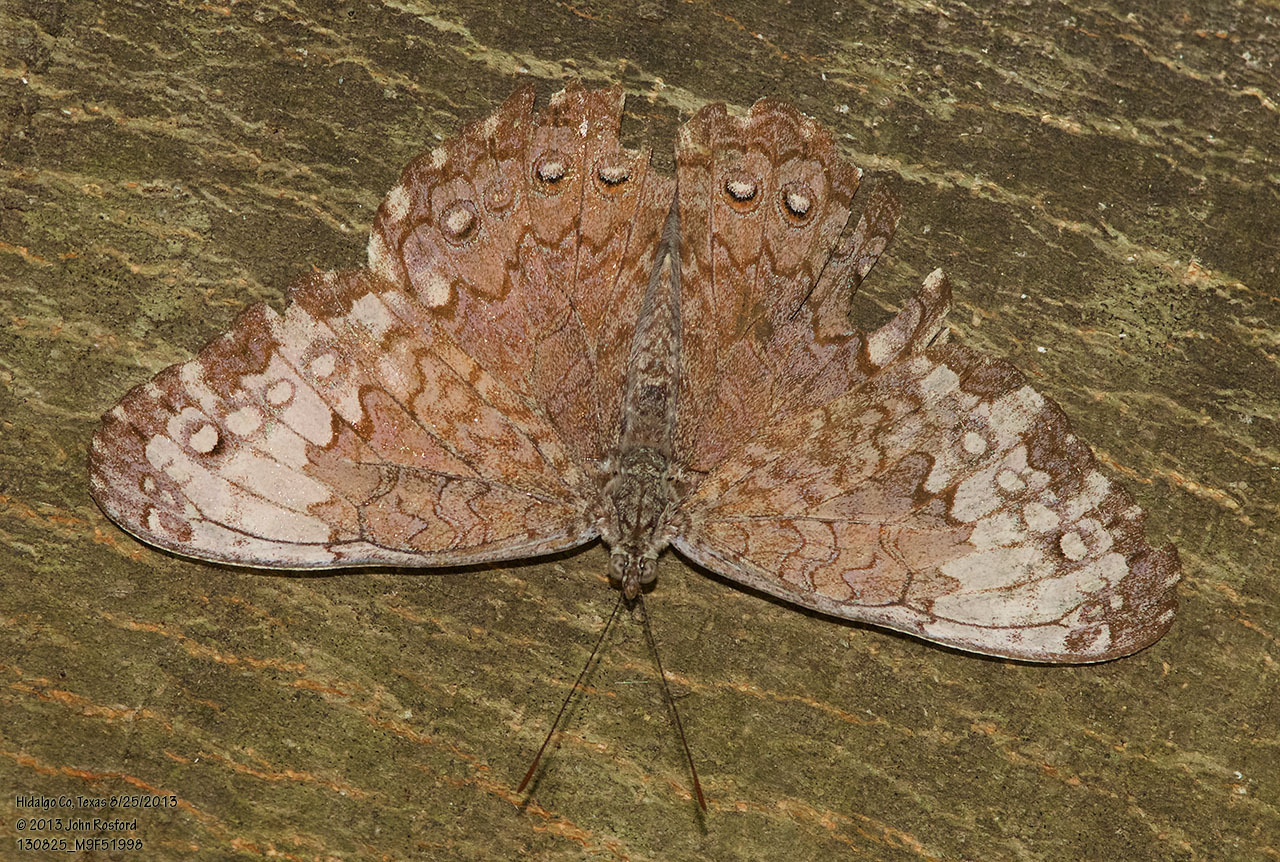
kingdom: Animalia
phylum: Arthropoda
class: Insecta
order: Lepidoptera
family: Nymphalidae
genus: Hamadryas
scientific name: Hamadryas glauconome
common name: Glaucous cracker
